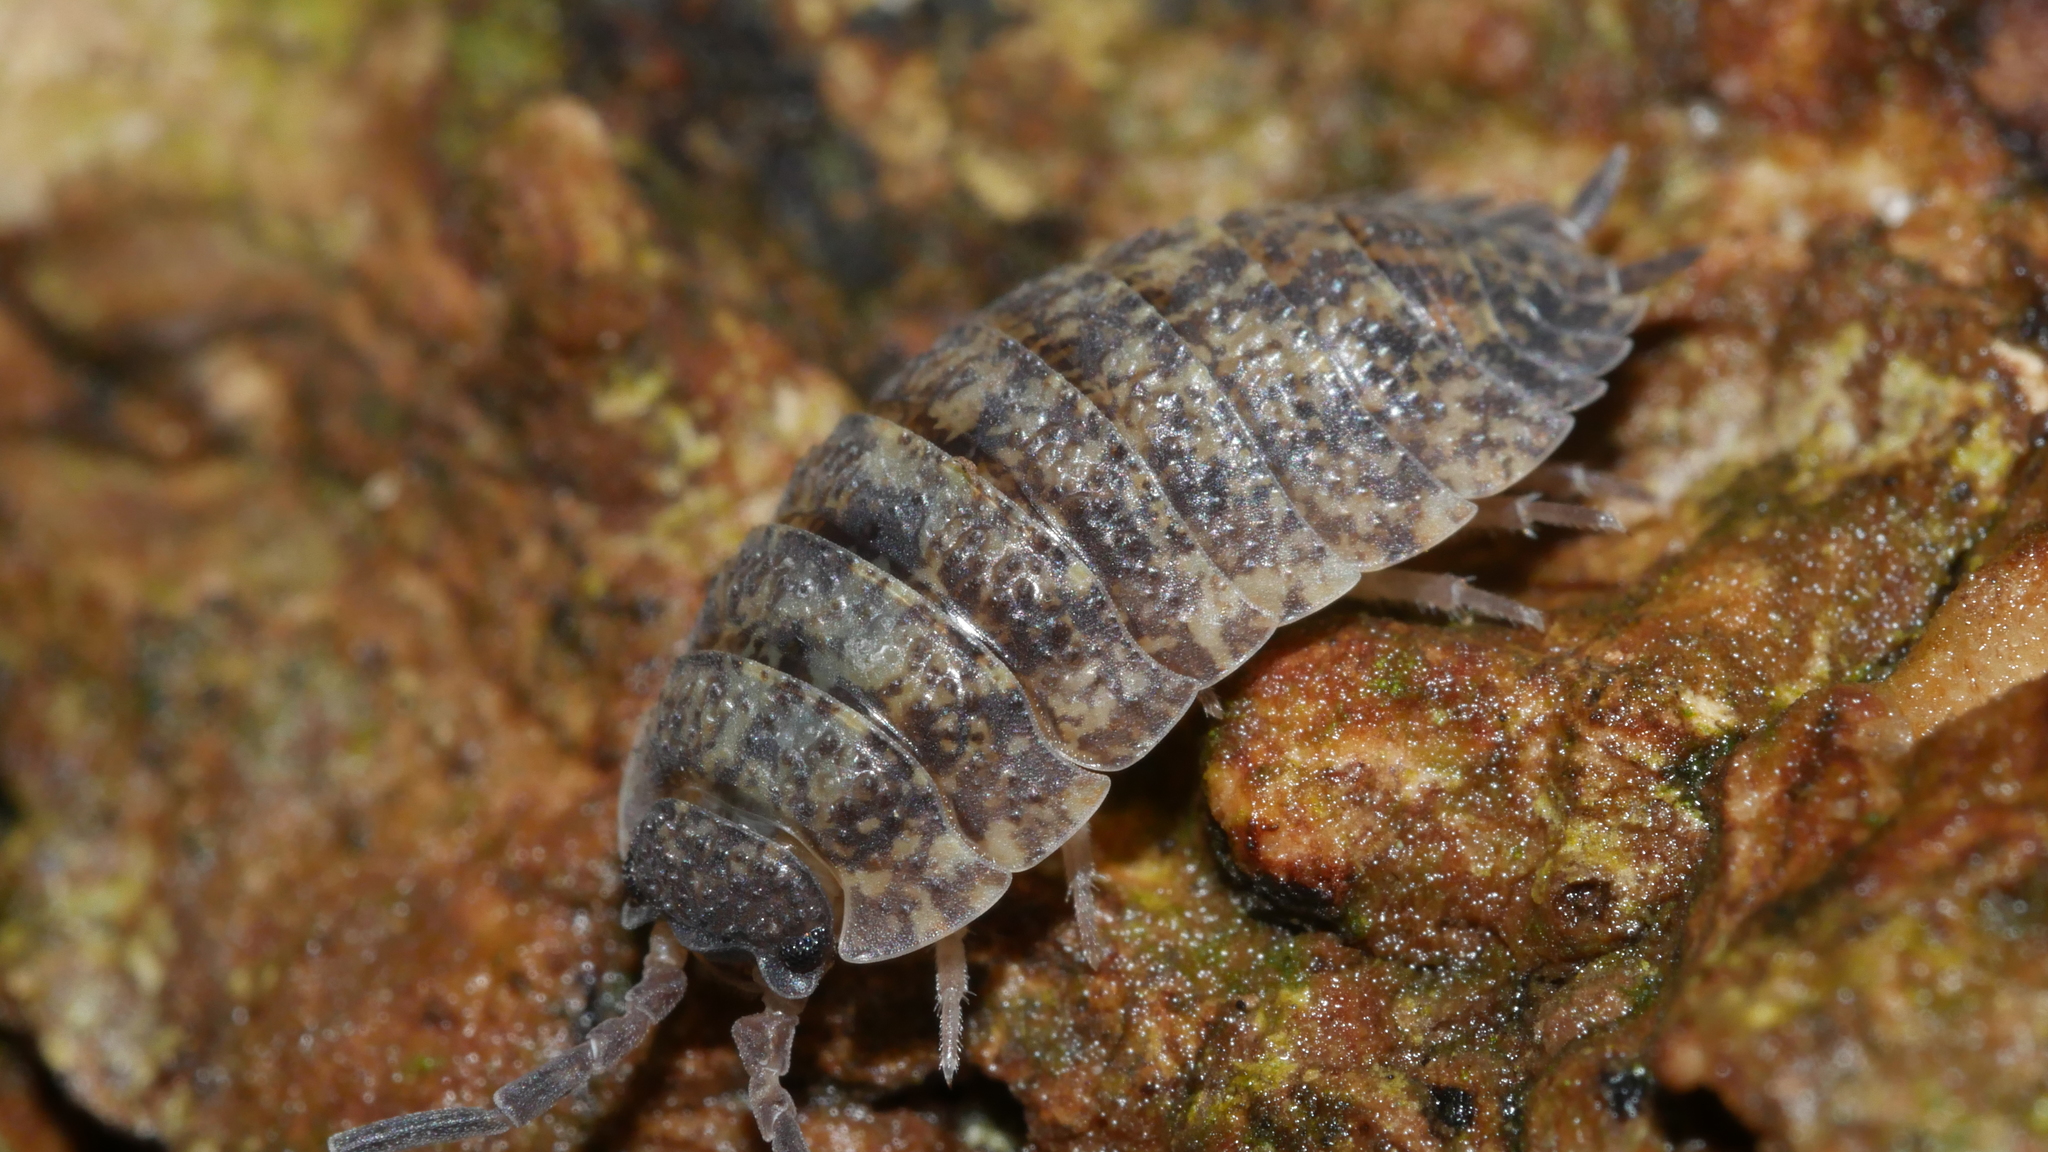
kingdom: Animalia
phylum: Arthropoda
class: Malacostraca
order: Isopoda
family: Porcellionidae
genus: Porcellio
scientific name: Porcellio scaber
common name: Common rough woodlouse
